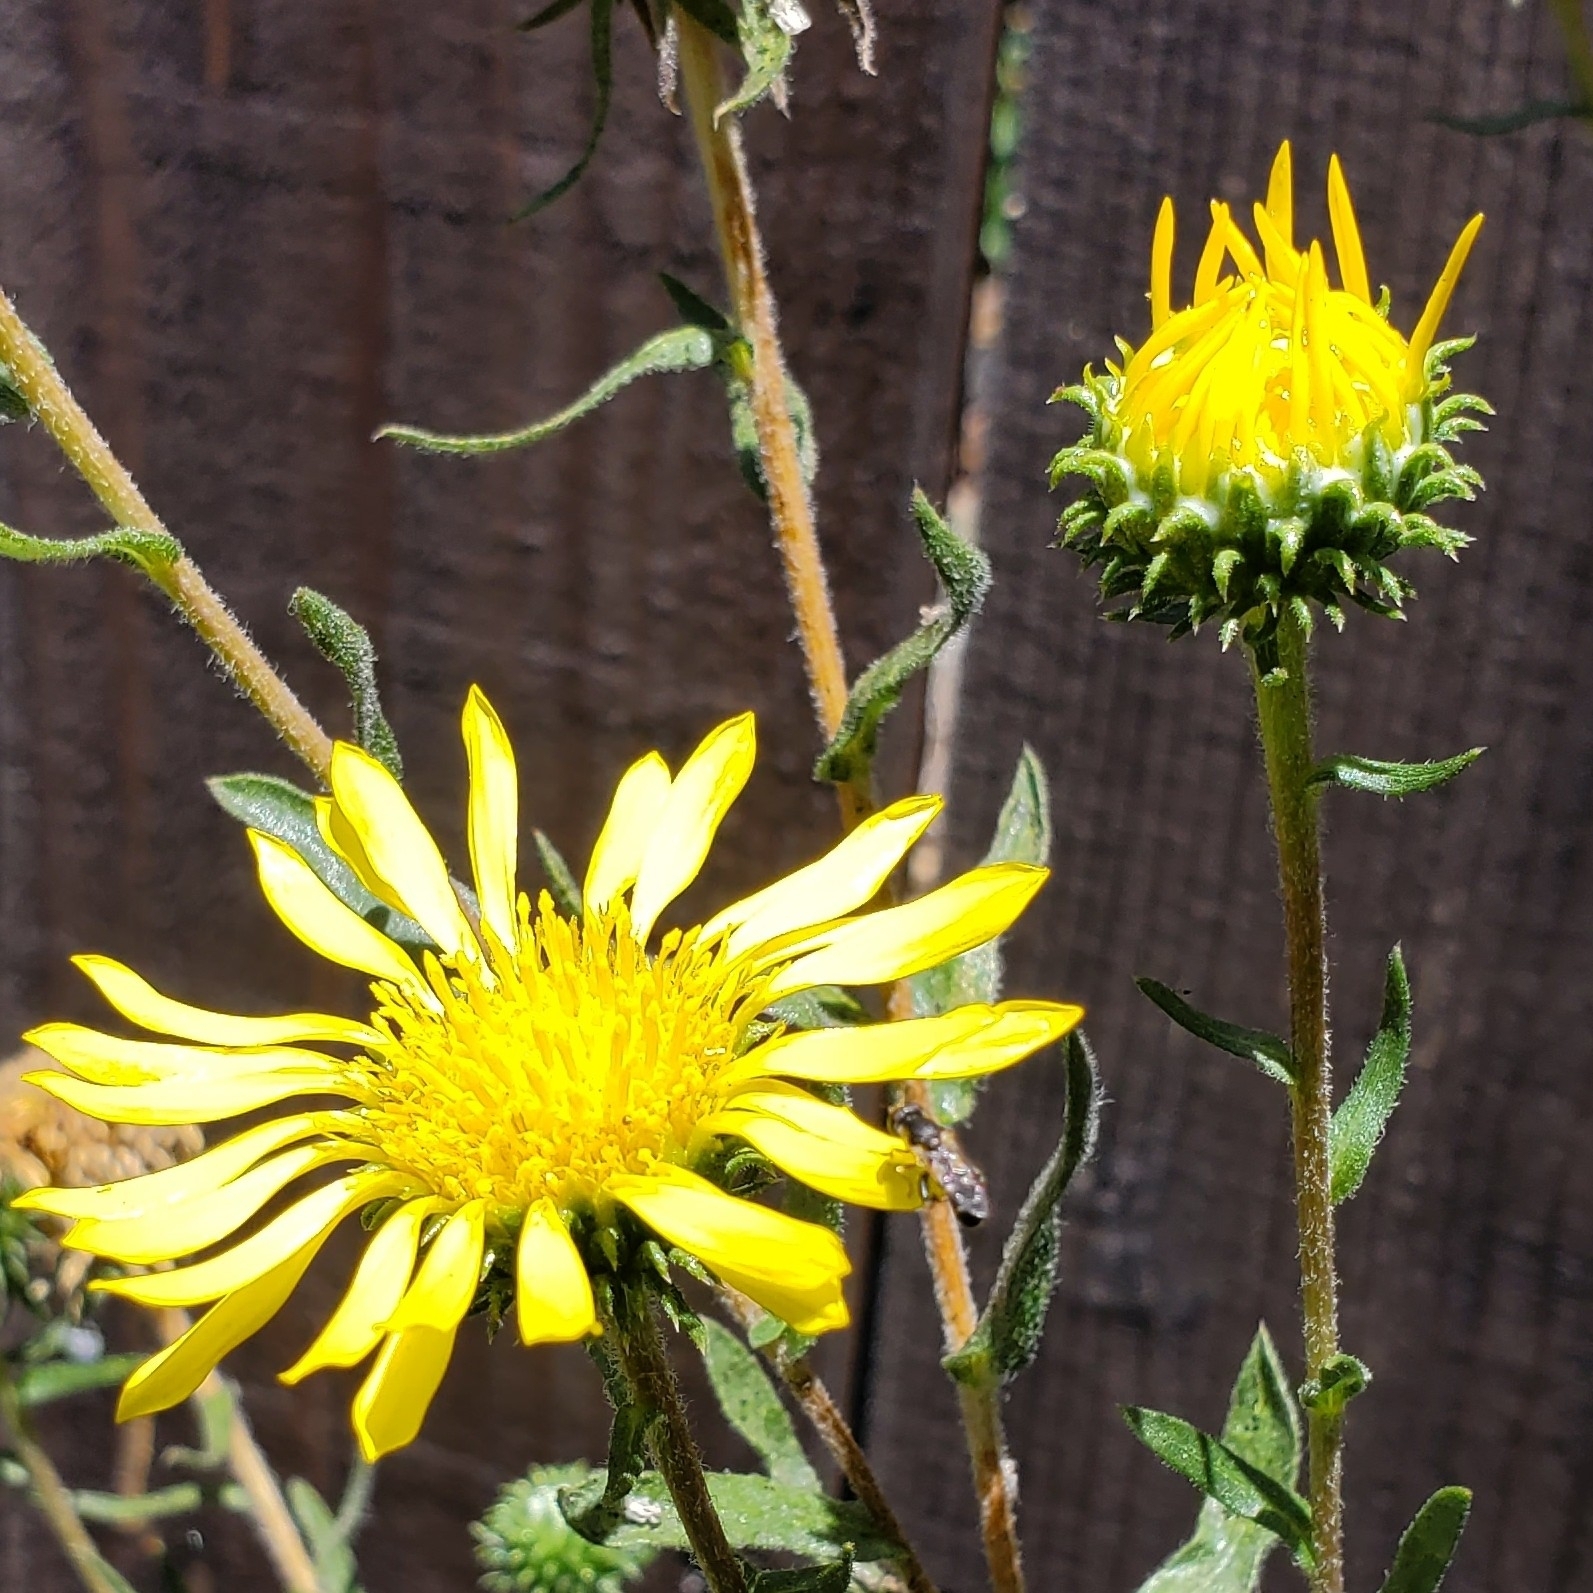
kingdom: Animalia
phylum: Arthropoda
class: Insecta
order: Diptera
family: Syrphidae
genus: Syritta
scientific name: Syritta pipiens
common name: Hover fly
